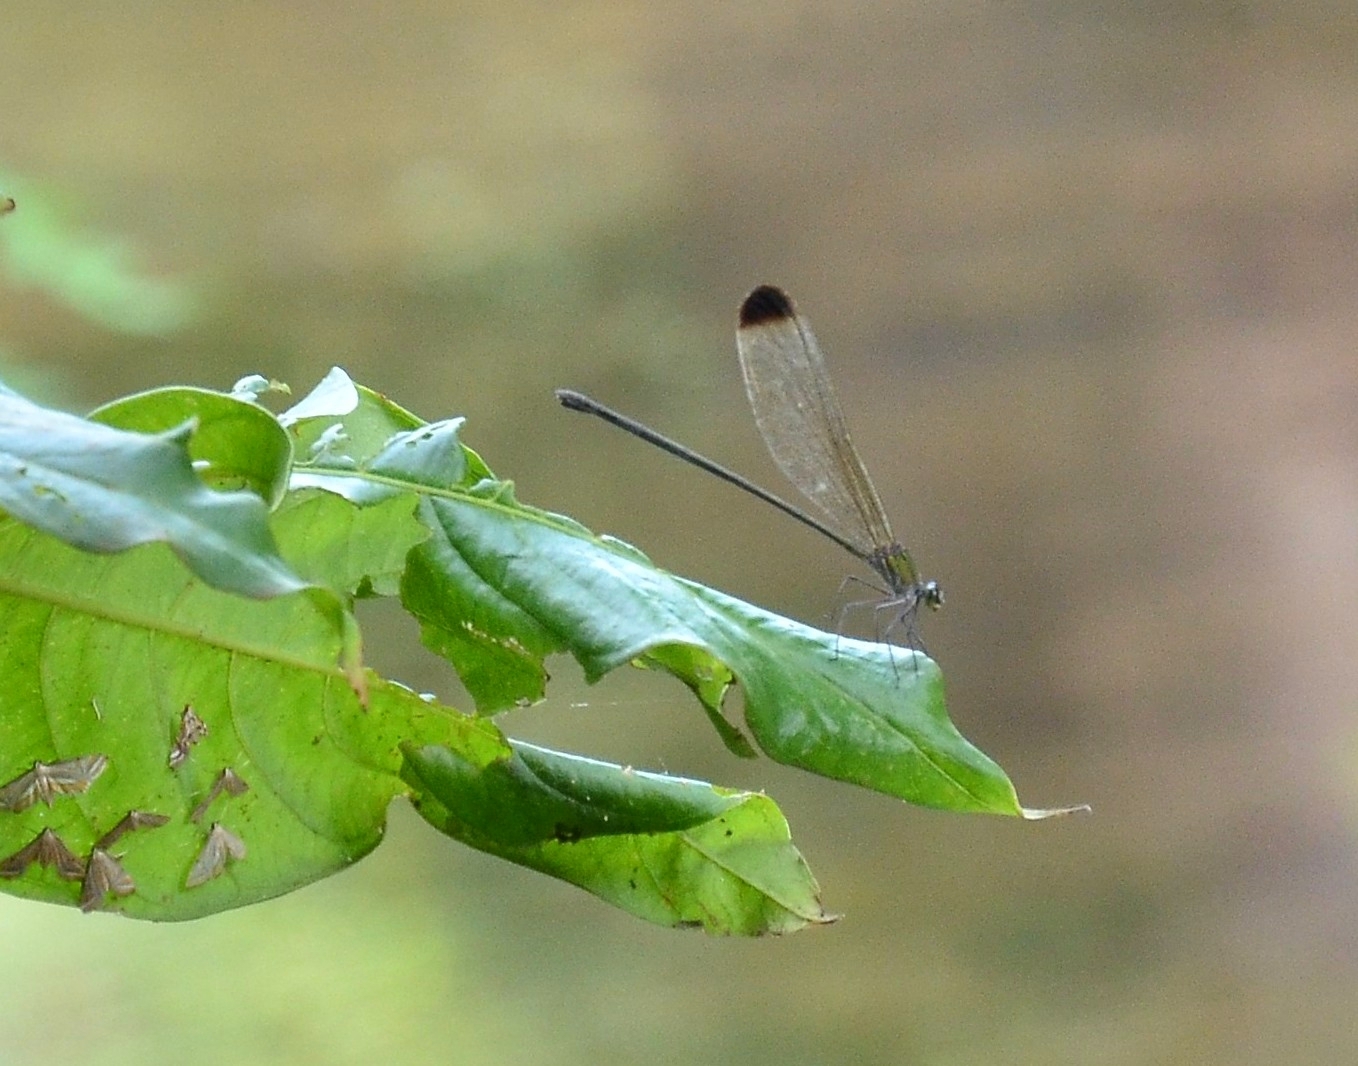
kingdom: Animalia
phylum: Arthropoda
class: Insecta
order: Odonata
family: Calopterygidae
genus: Vestalis
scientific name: Vestalis apicalis
